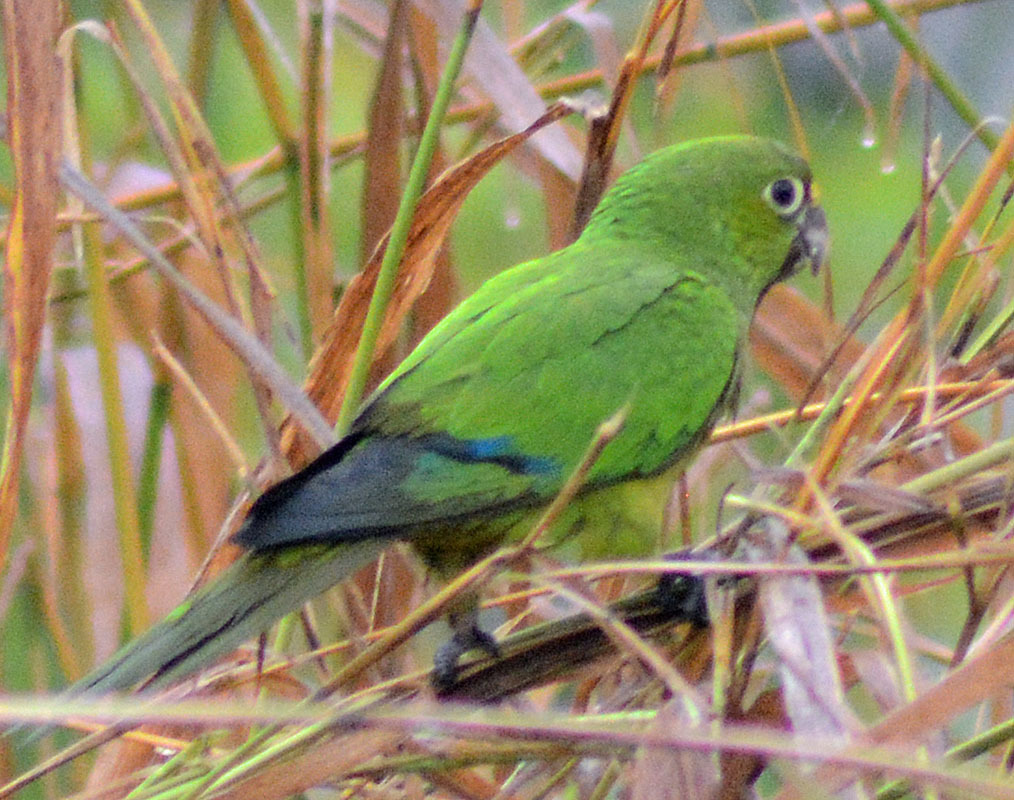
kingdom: Animalia
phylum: Chordata
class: Aves
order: Psittaciformes
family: Psittacidae
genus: Aratinga
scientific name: Aratinga nana
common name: Olive-throated parakeet
